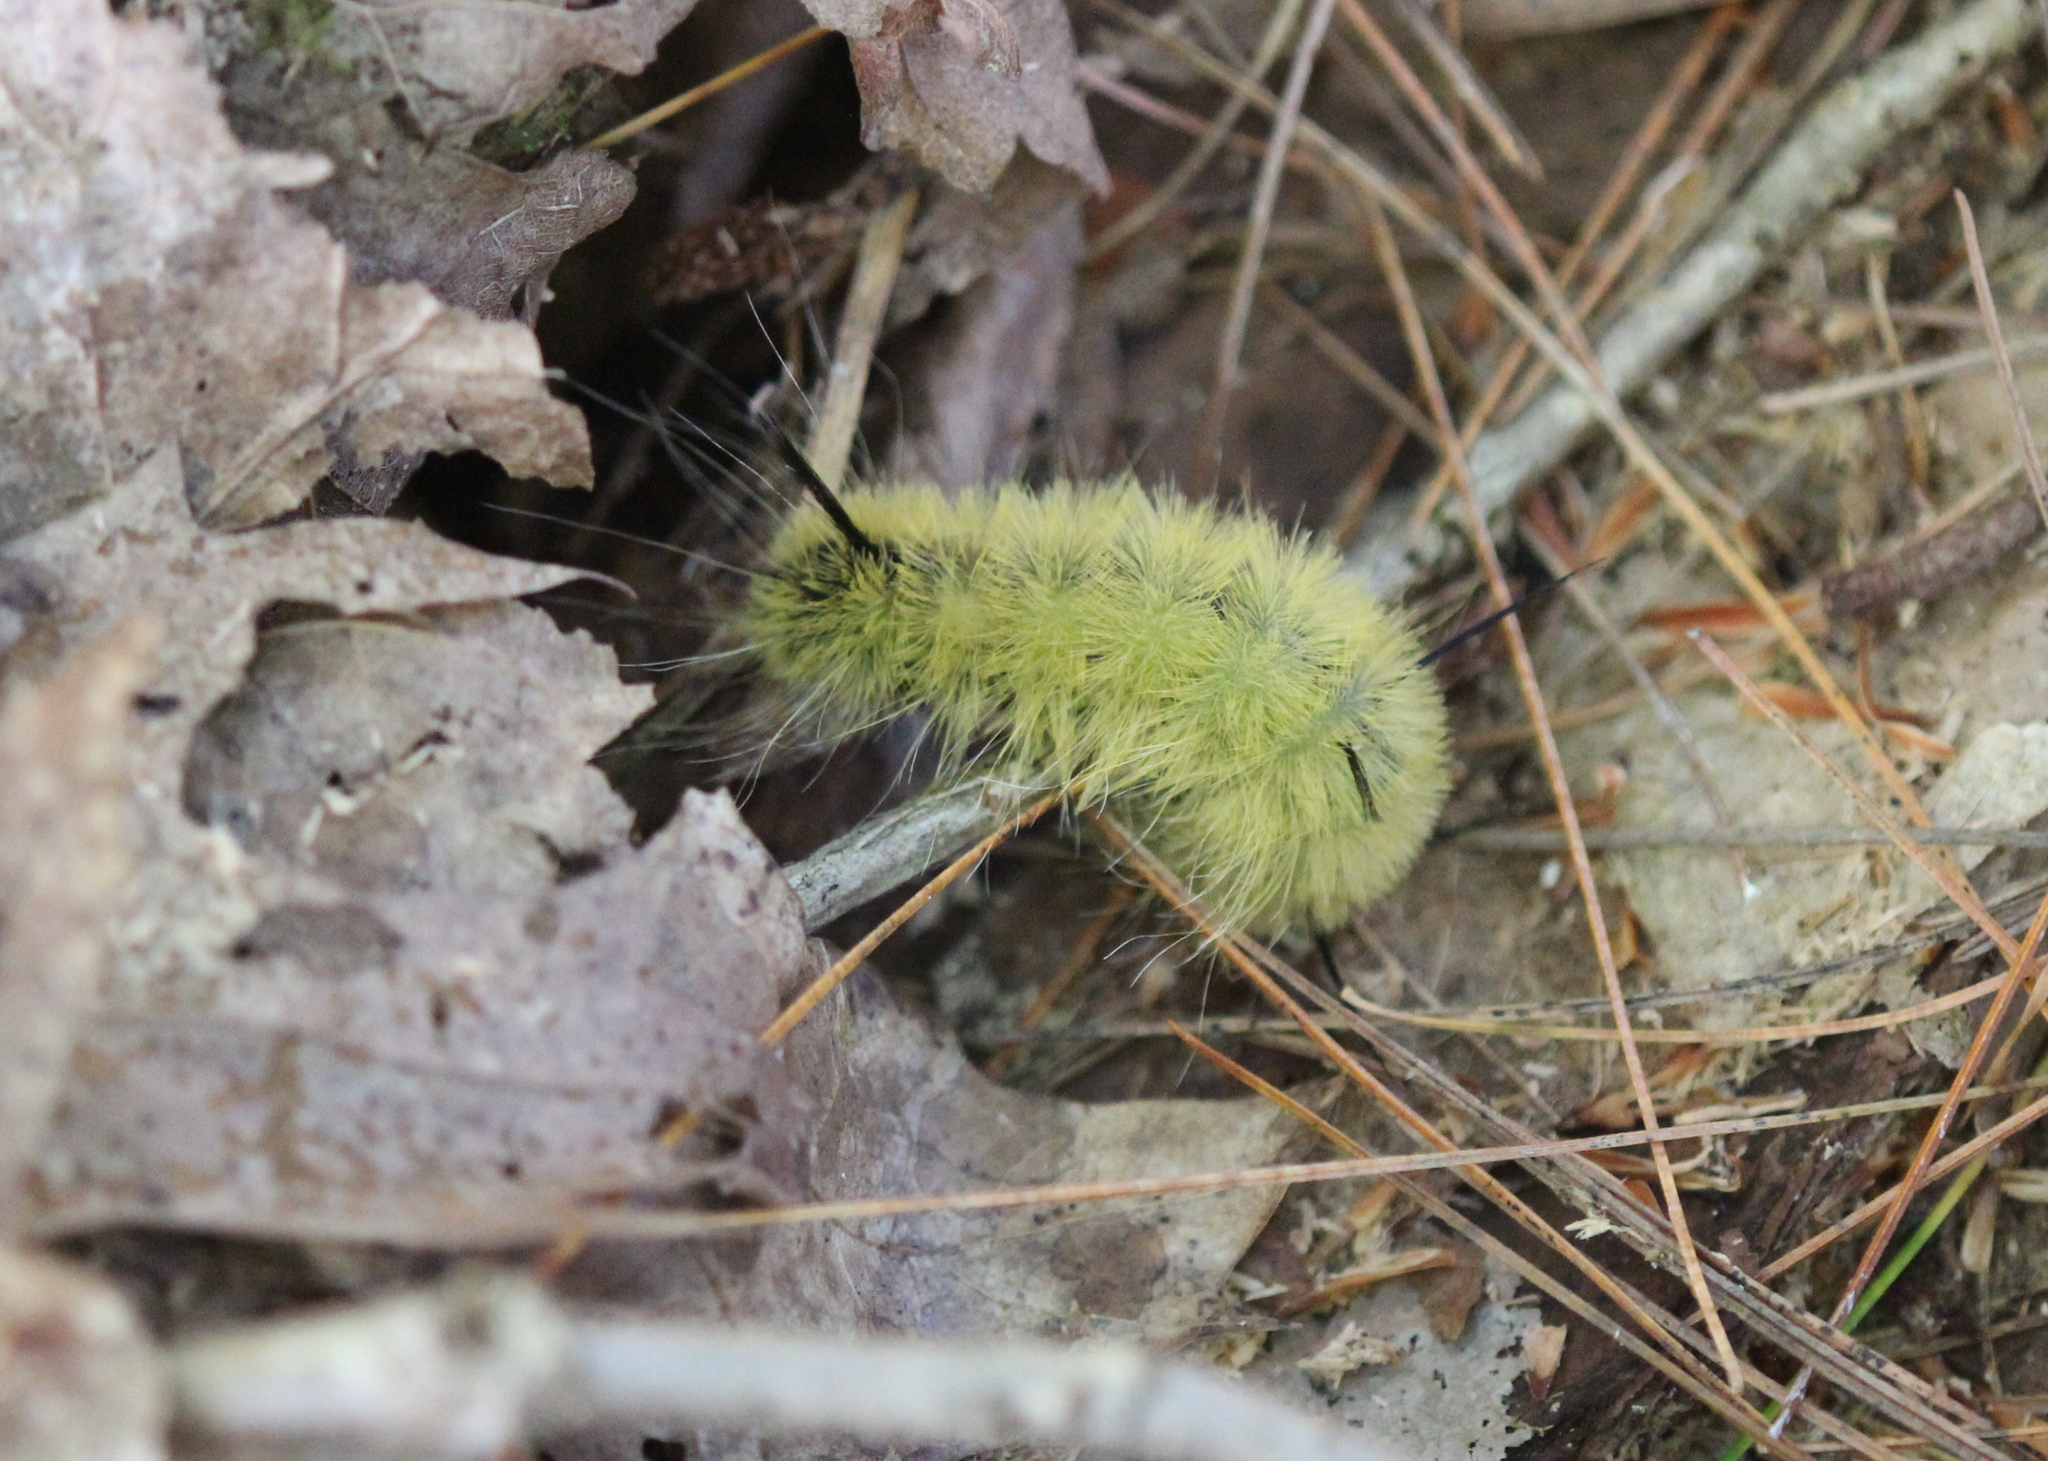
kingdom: Animalia
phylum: Arthropoda
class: Insecta
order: Lepidoptera
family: Noctuidae
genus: Acronicta
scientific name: Acronicta americana
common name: American dagger
